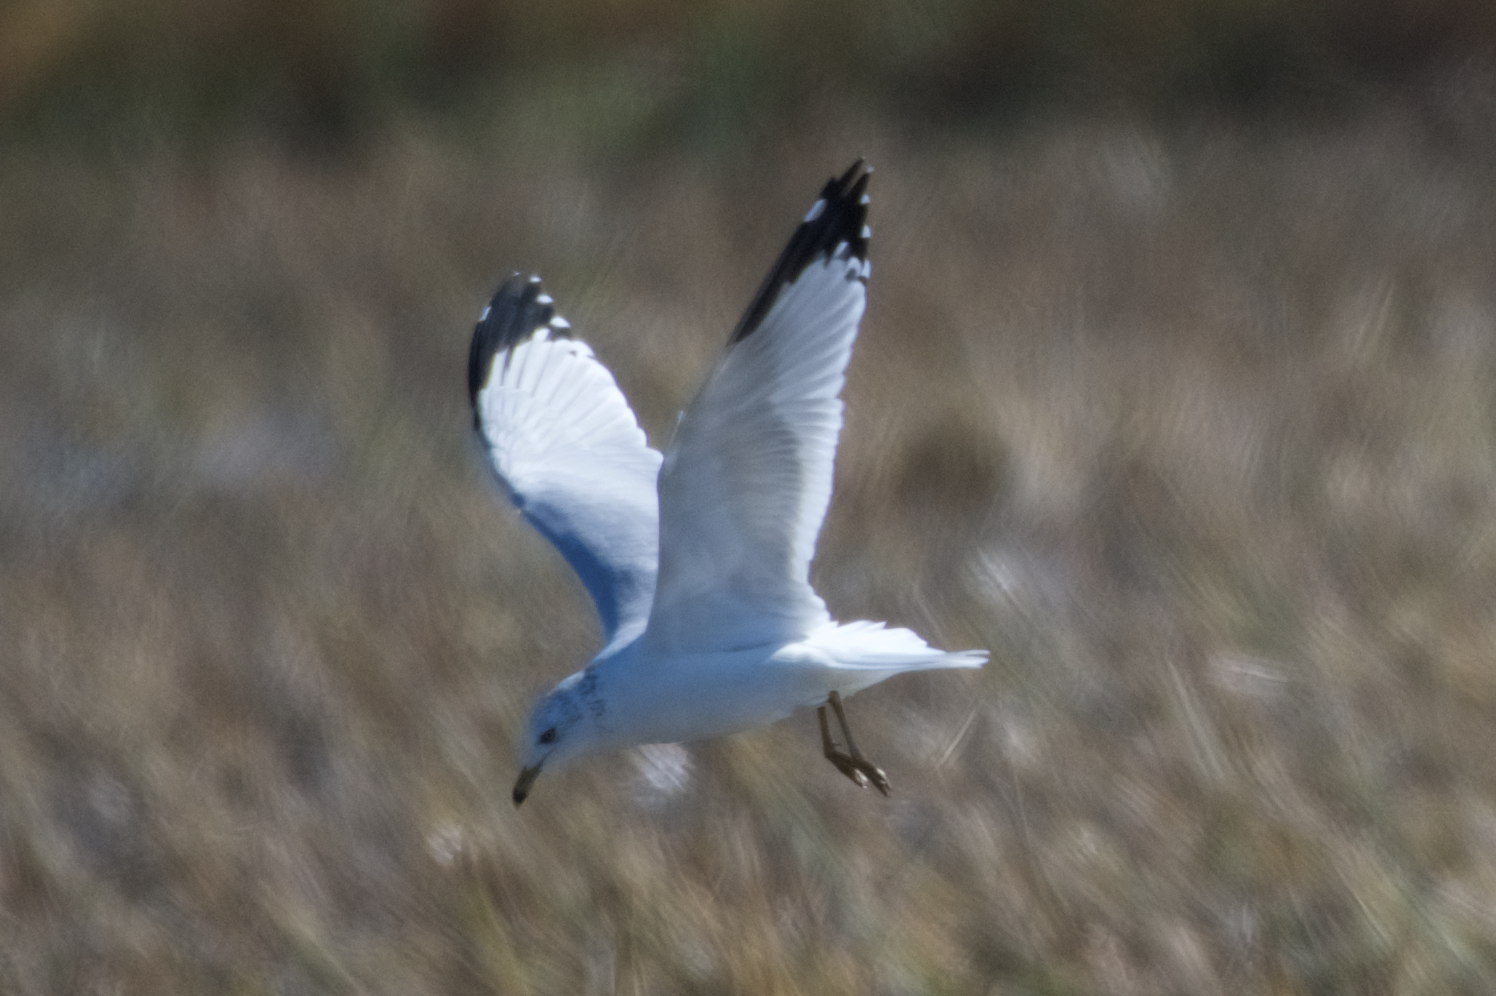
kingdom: Animalia
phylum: Chordata
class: Aves
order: Charadriiformes
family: Laridae
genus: Larus
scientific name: Larus delawarensis
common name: Ring-billed gull
